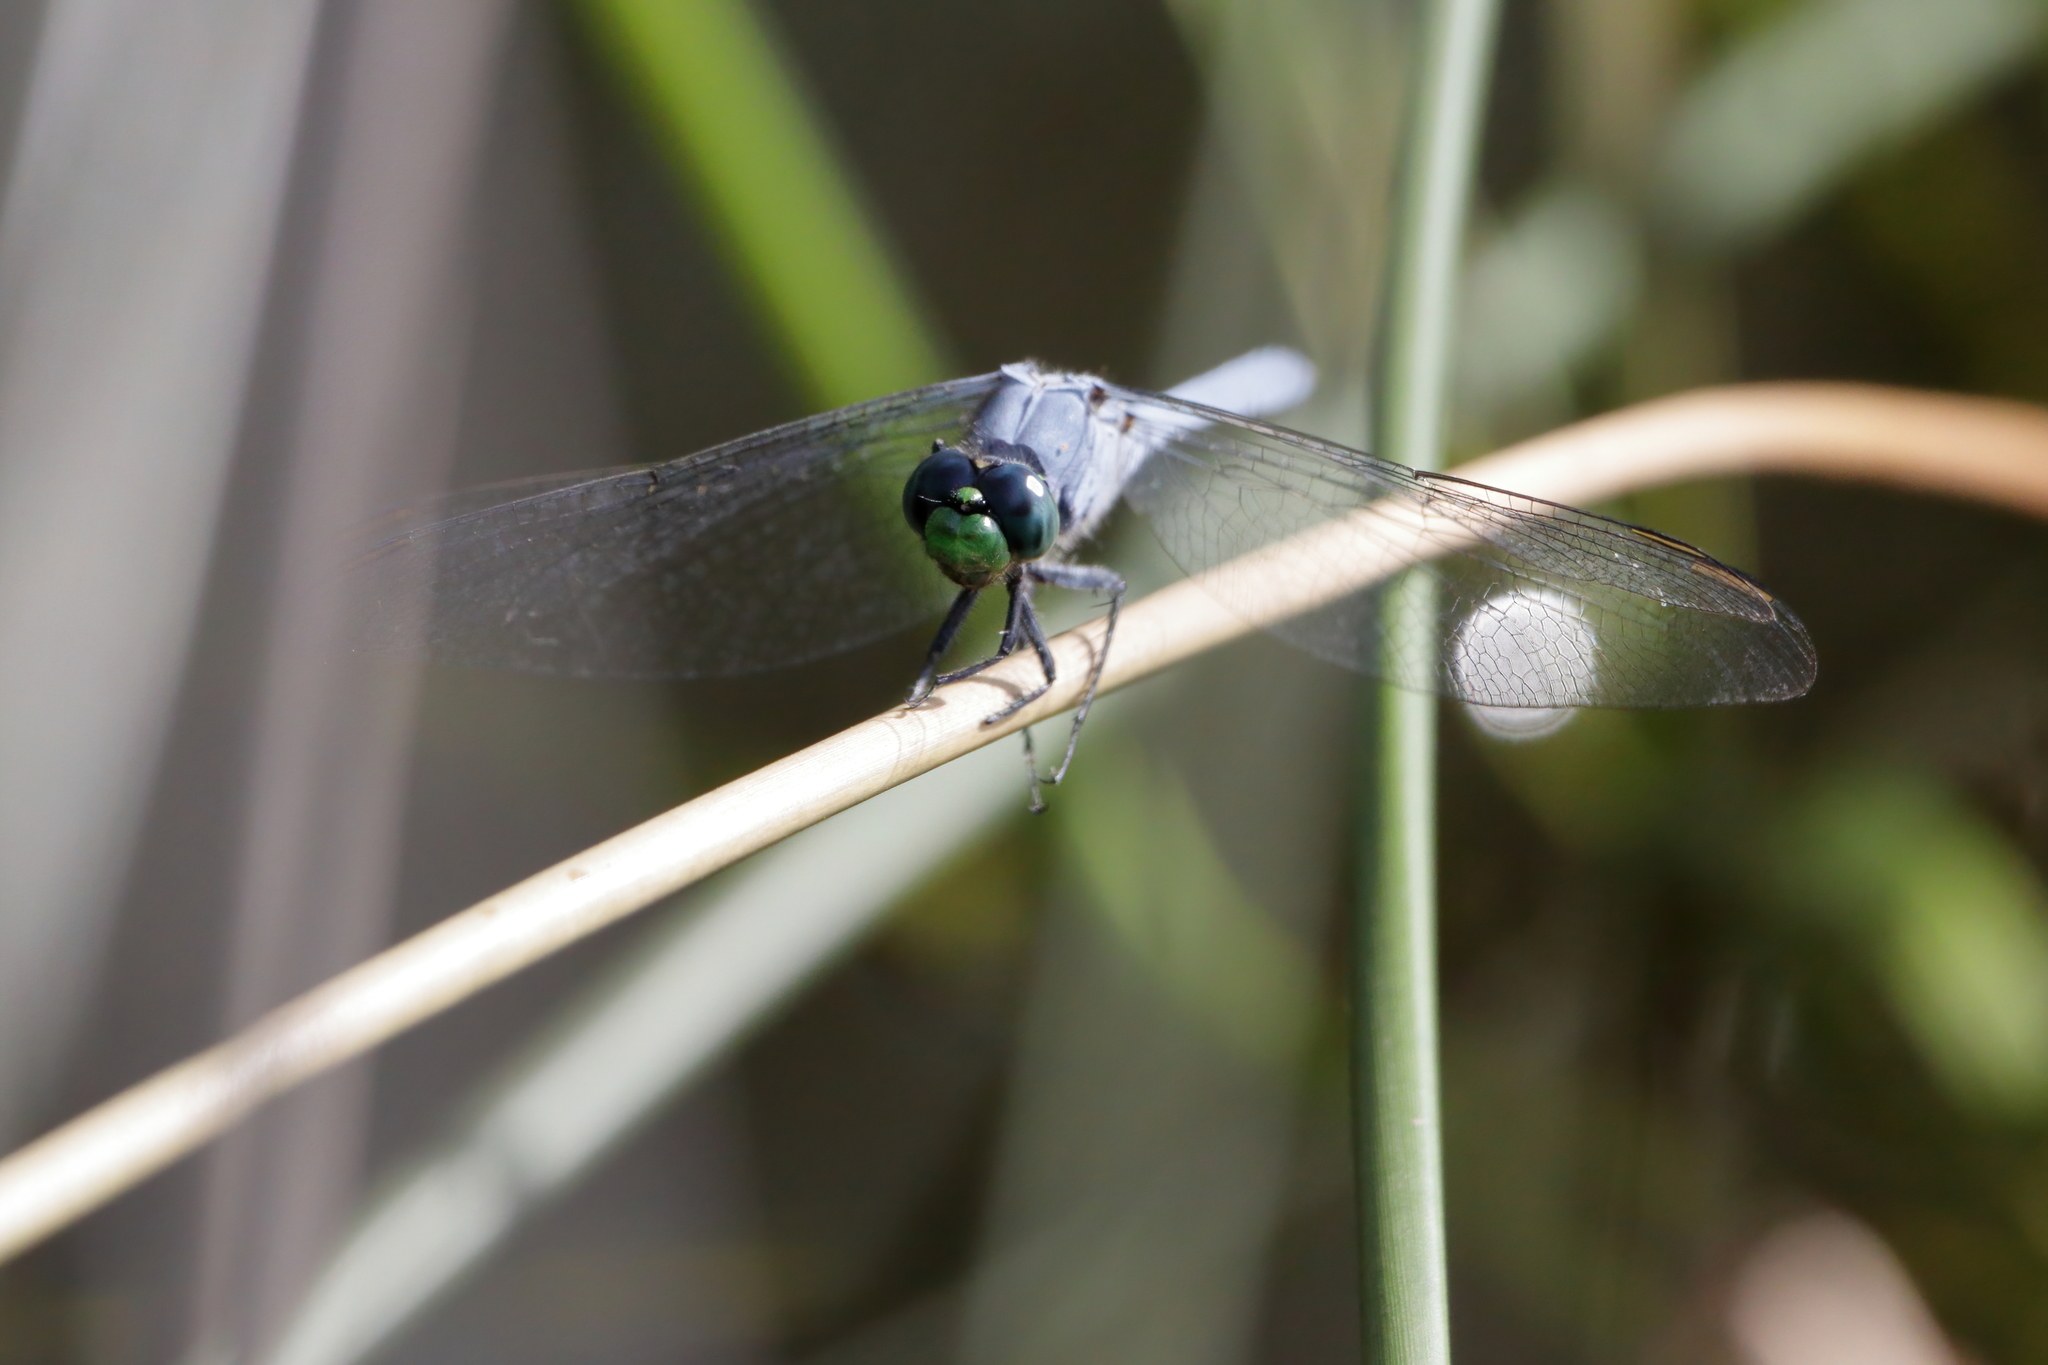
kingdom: Animalia
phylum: Arthropoda
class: Insecta
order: Odonata
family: Libellulidae
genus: Erythemis
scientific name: Erythemis simplicicollis
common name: Eastern pondhawk
